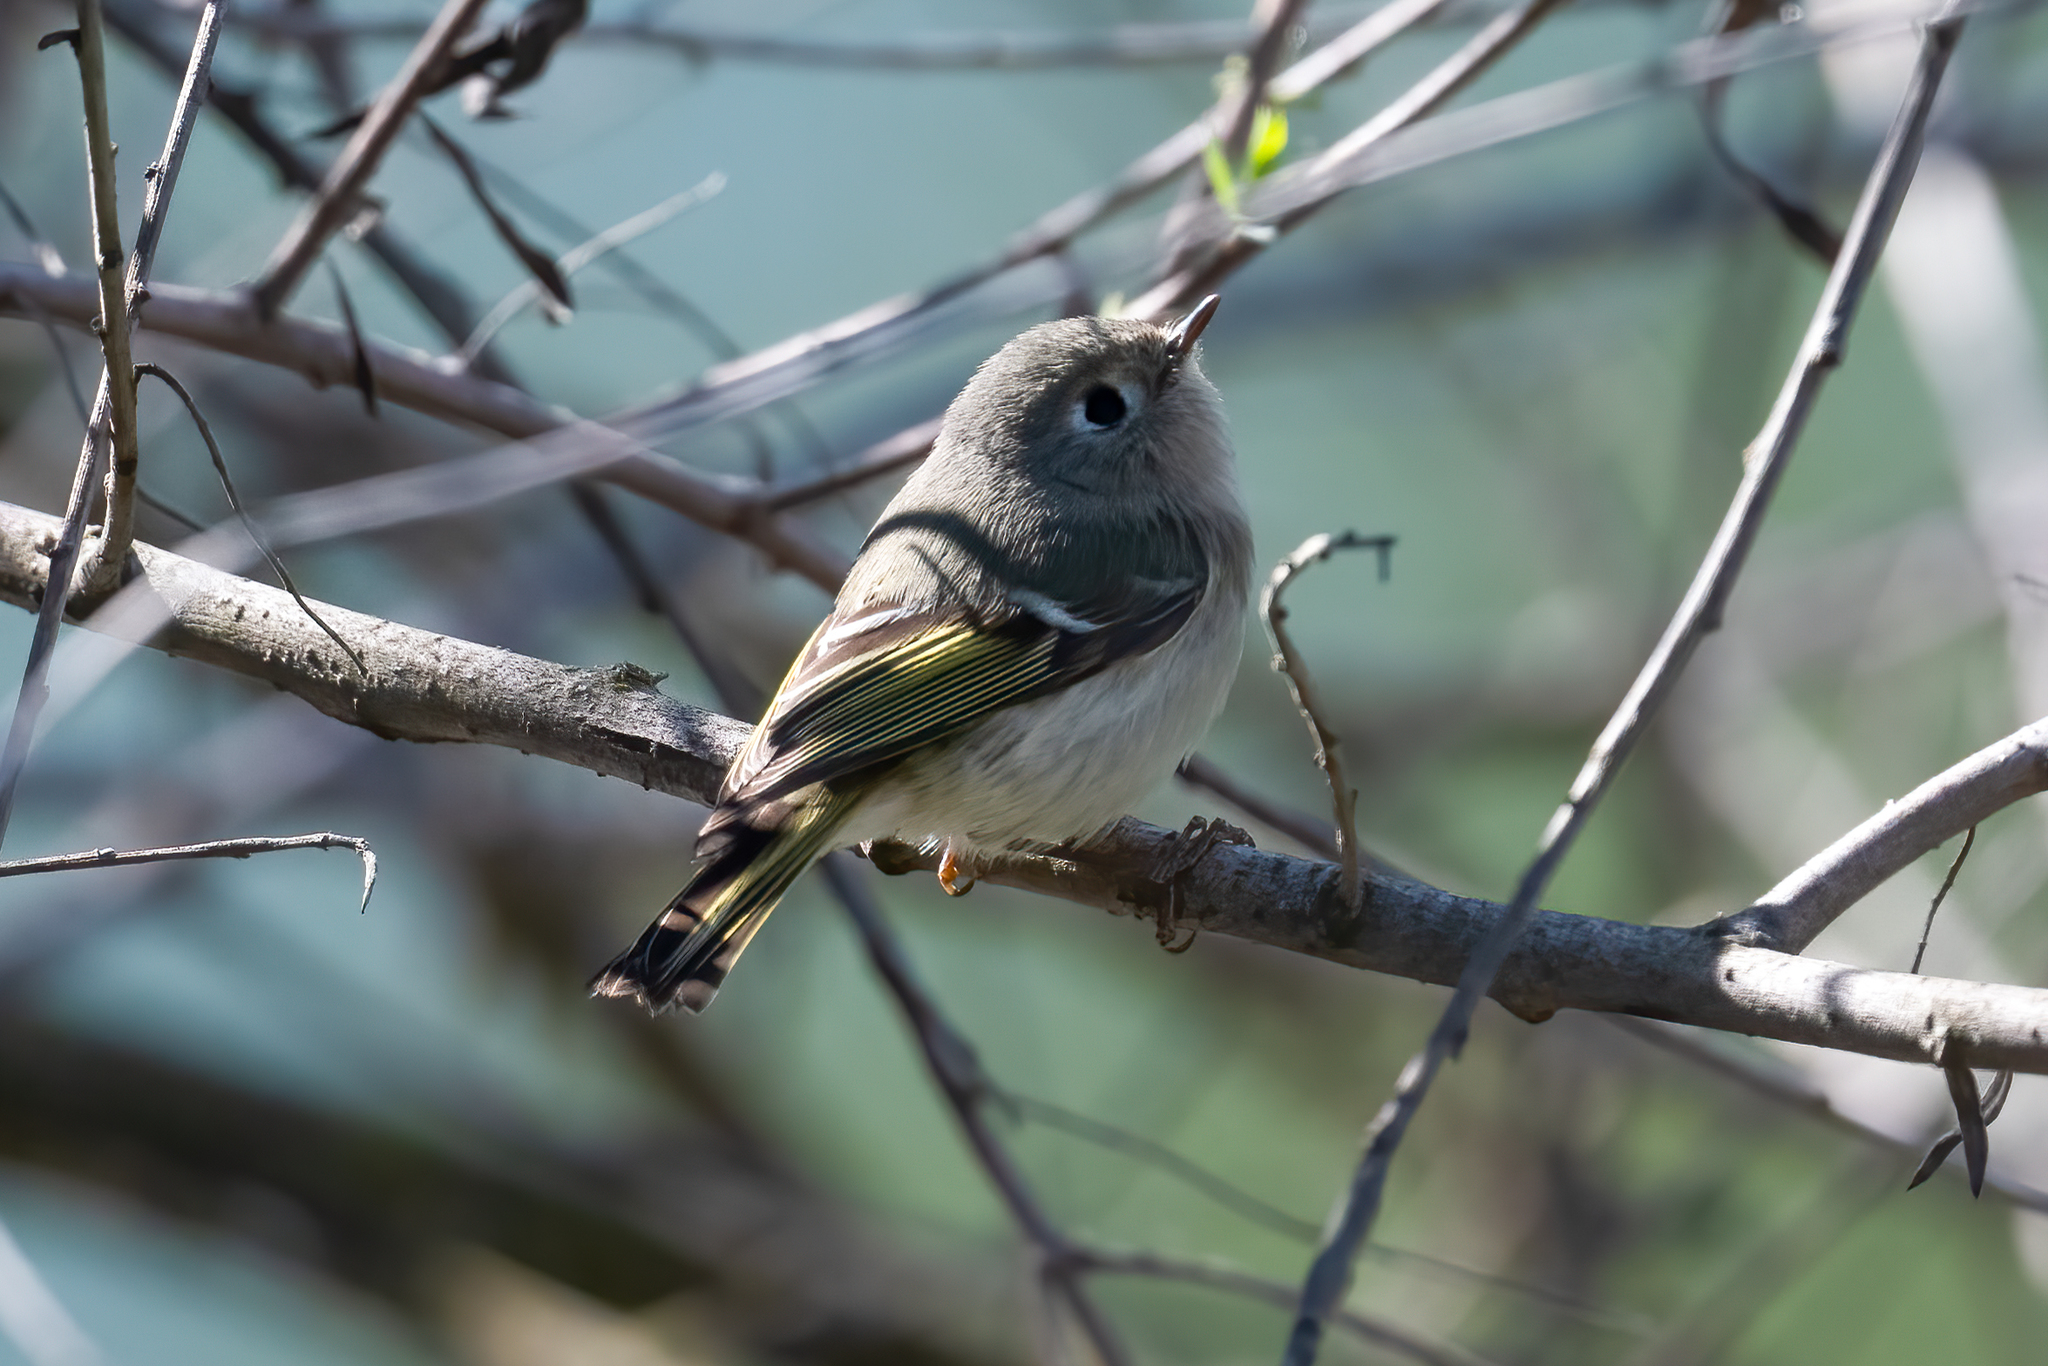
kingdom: Animalia
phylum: Chordata
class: Aves
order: Passeriformes
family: Regulidae
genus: Regulus
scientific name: Regulus calendula
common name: Ruby-crowned kinglet
